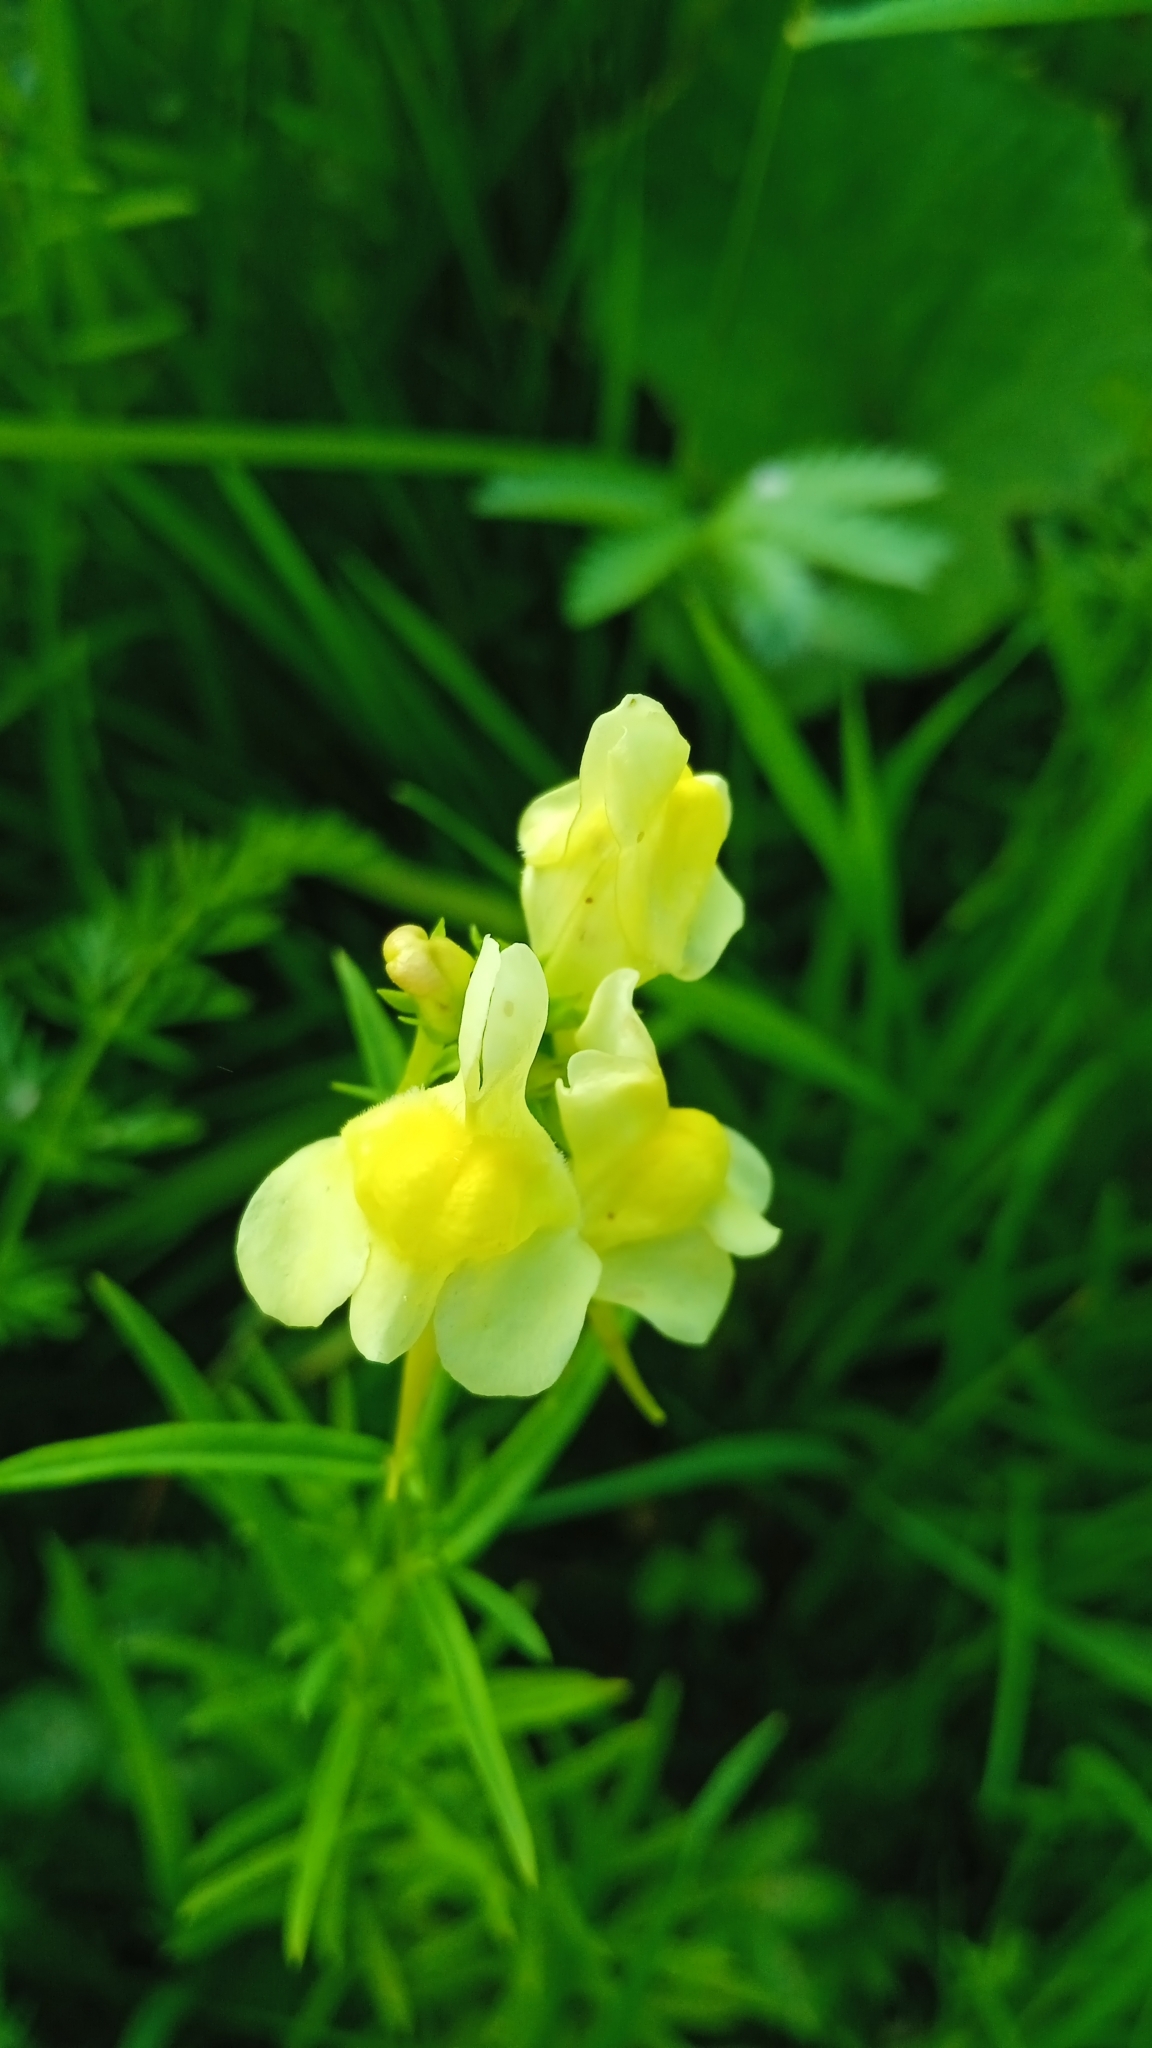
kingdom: Plantae
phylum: Tracheophyta
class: Magnoliopsida
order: Lamiales
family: Plantaginaceae
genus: Linaria
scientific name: Linaria vulgaris
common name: Butter and eggs
